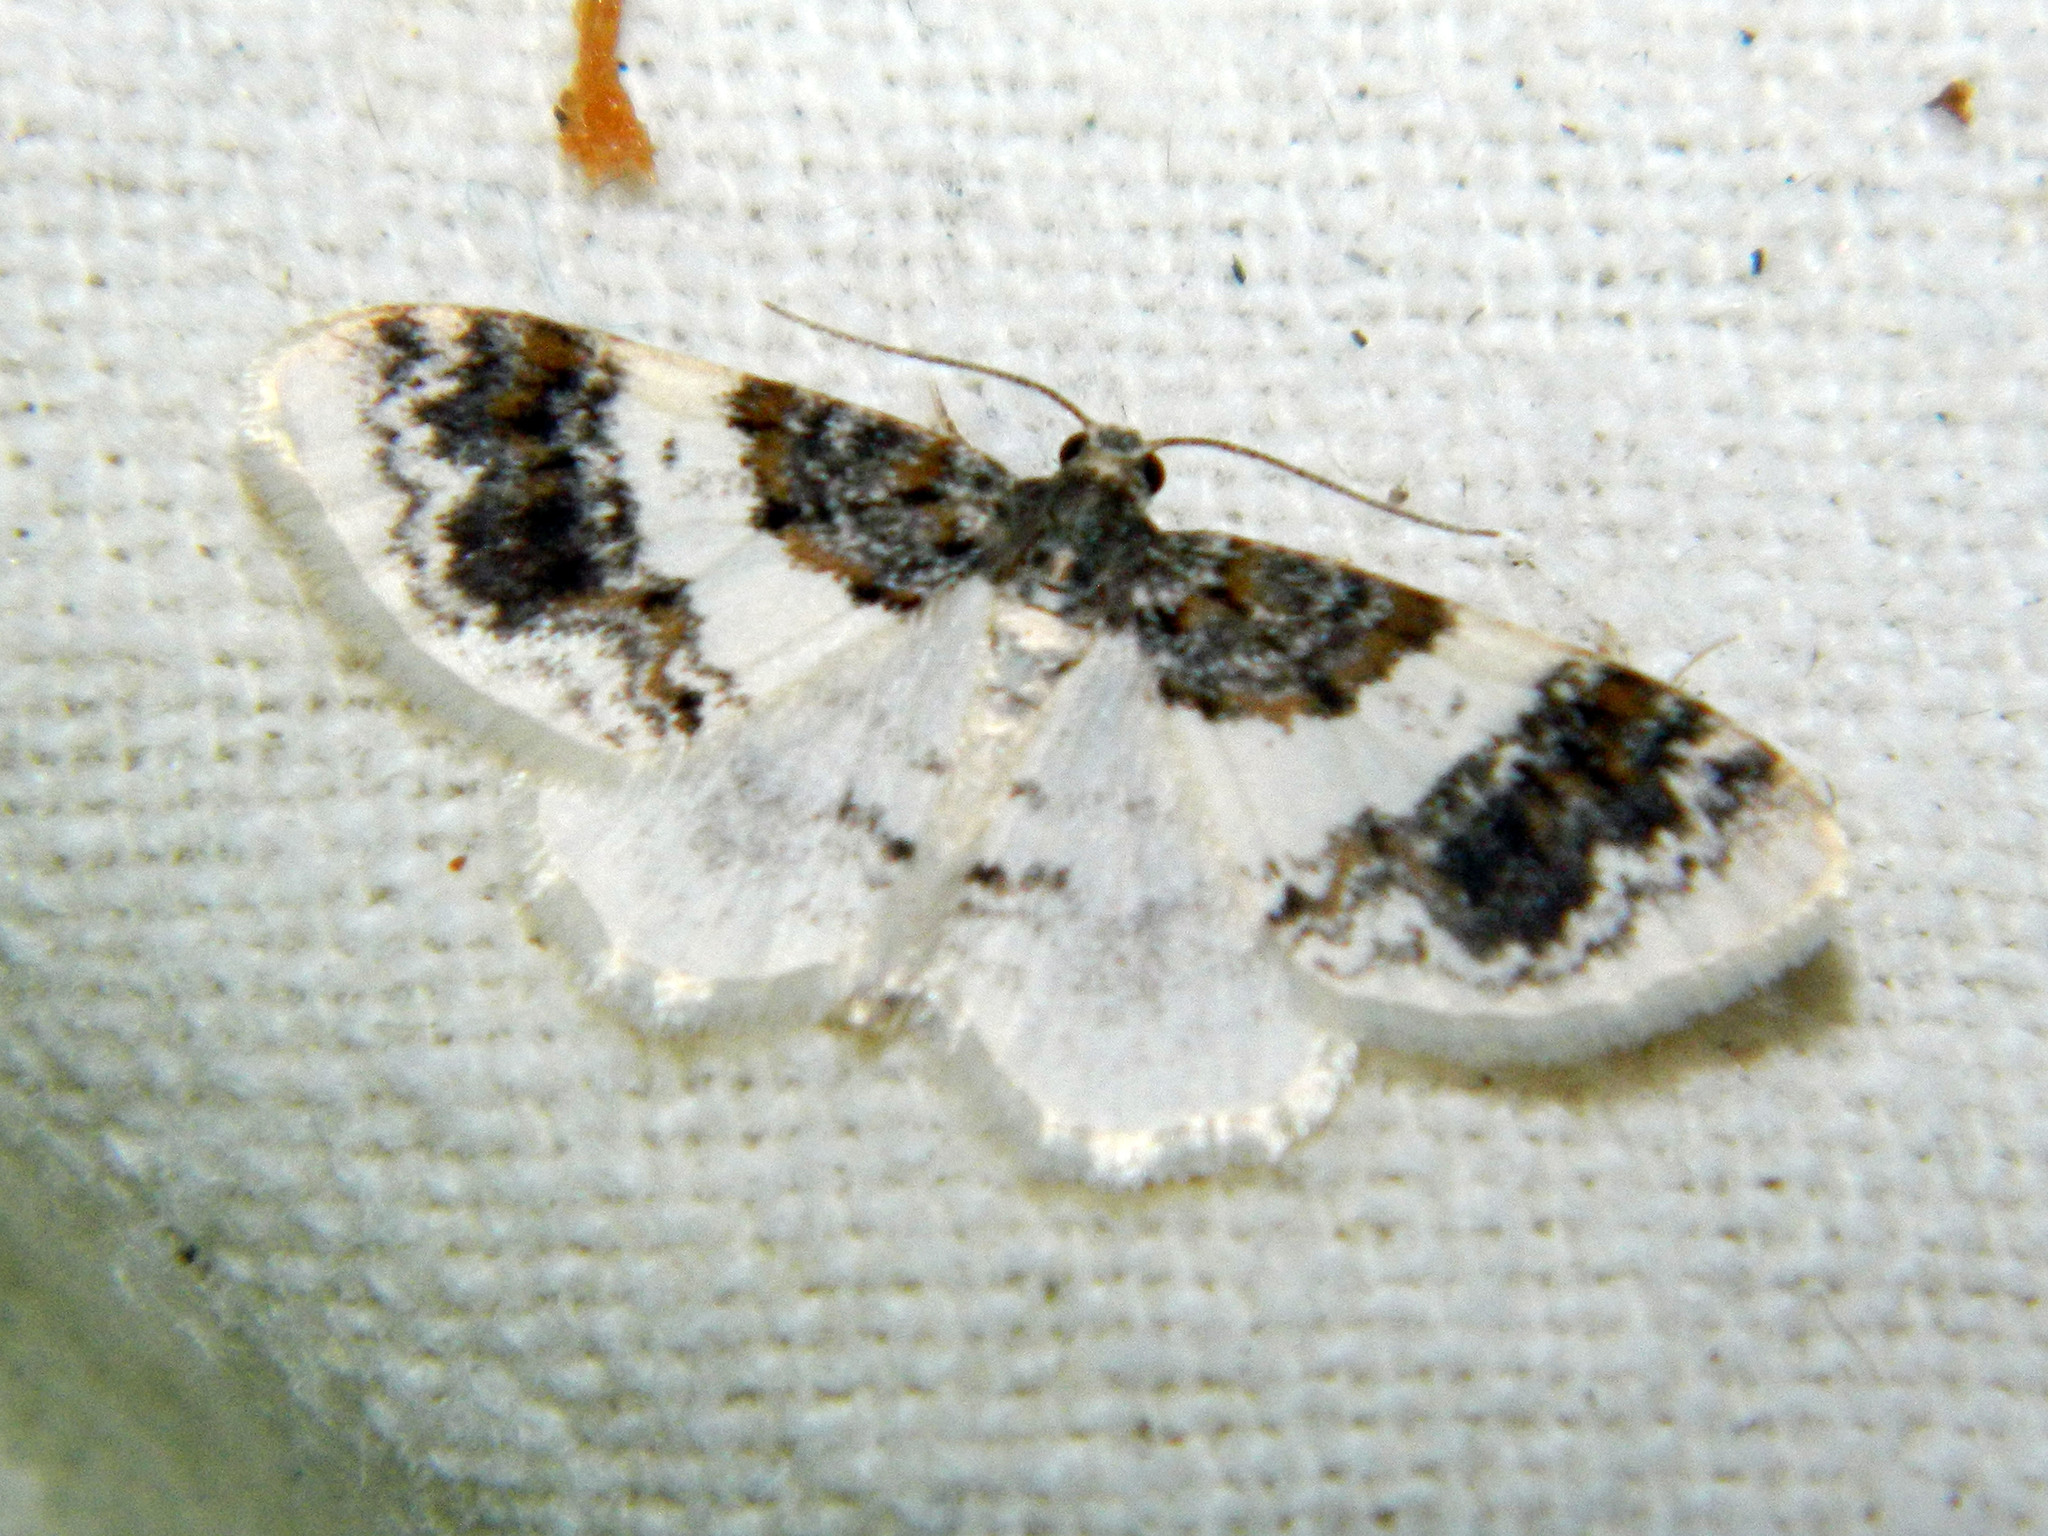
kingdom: Animalia
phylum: Arthropoda
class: Insecta
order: Lepidoptera
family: Geometridae
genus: Hydrelia
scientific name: Hydrelia condensata
